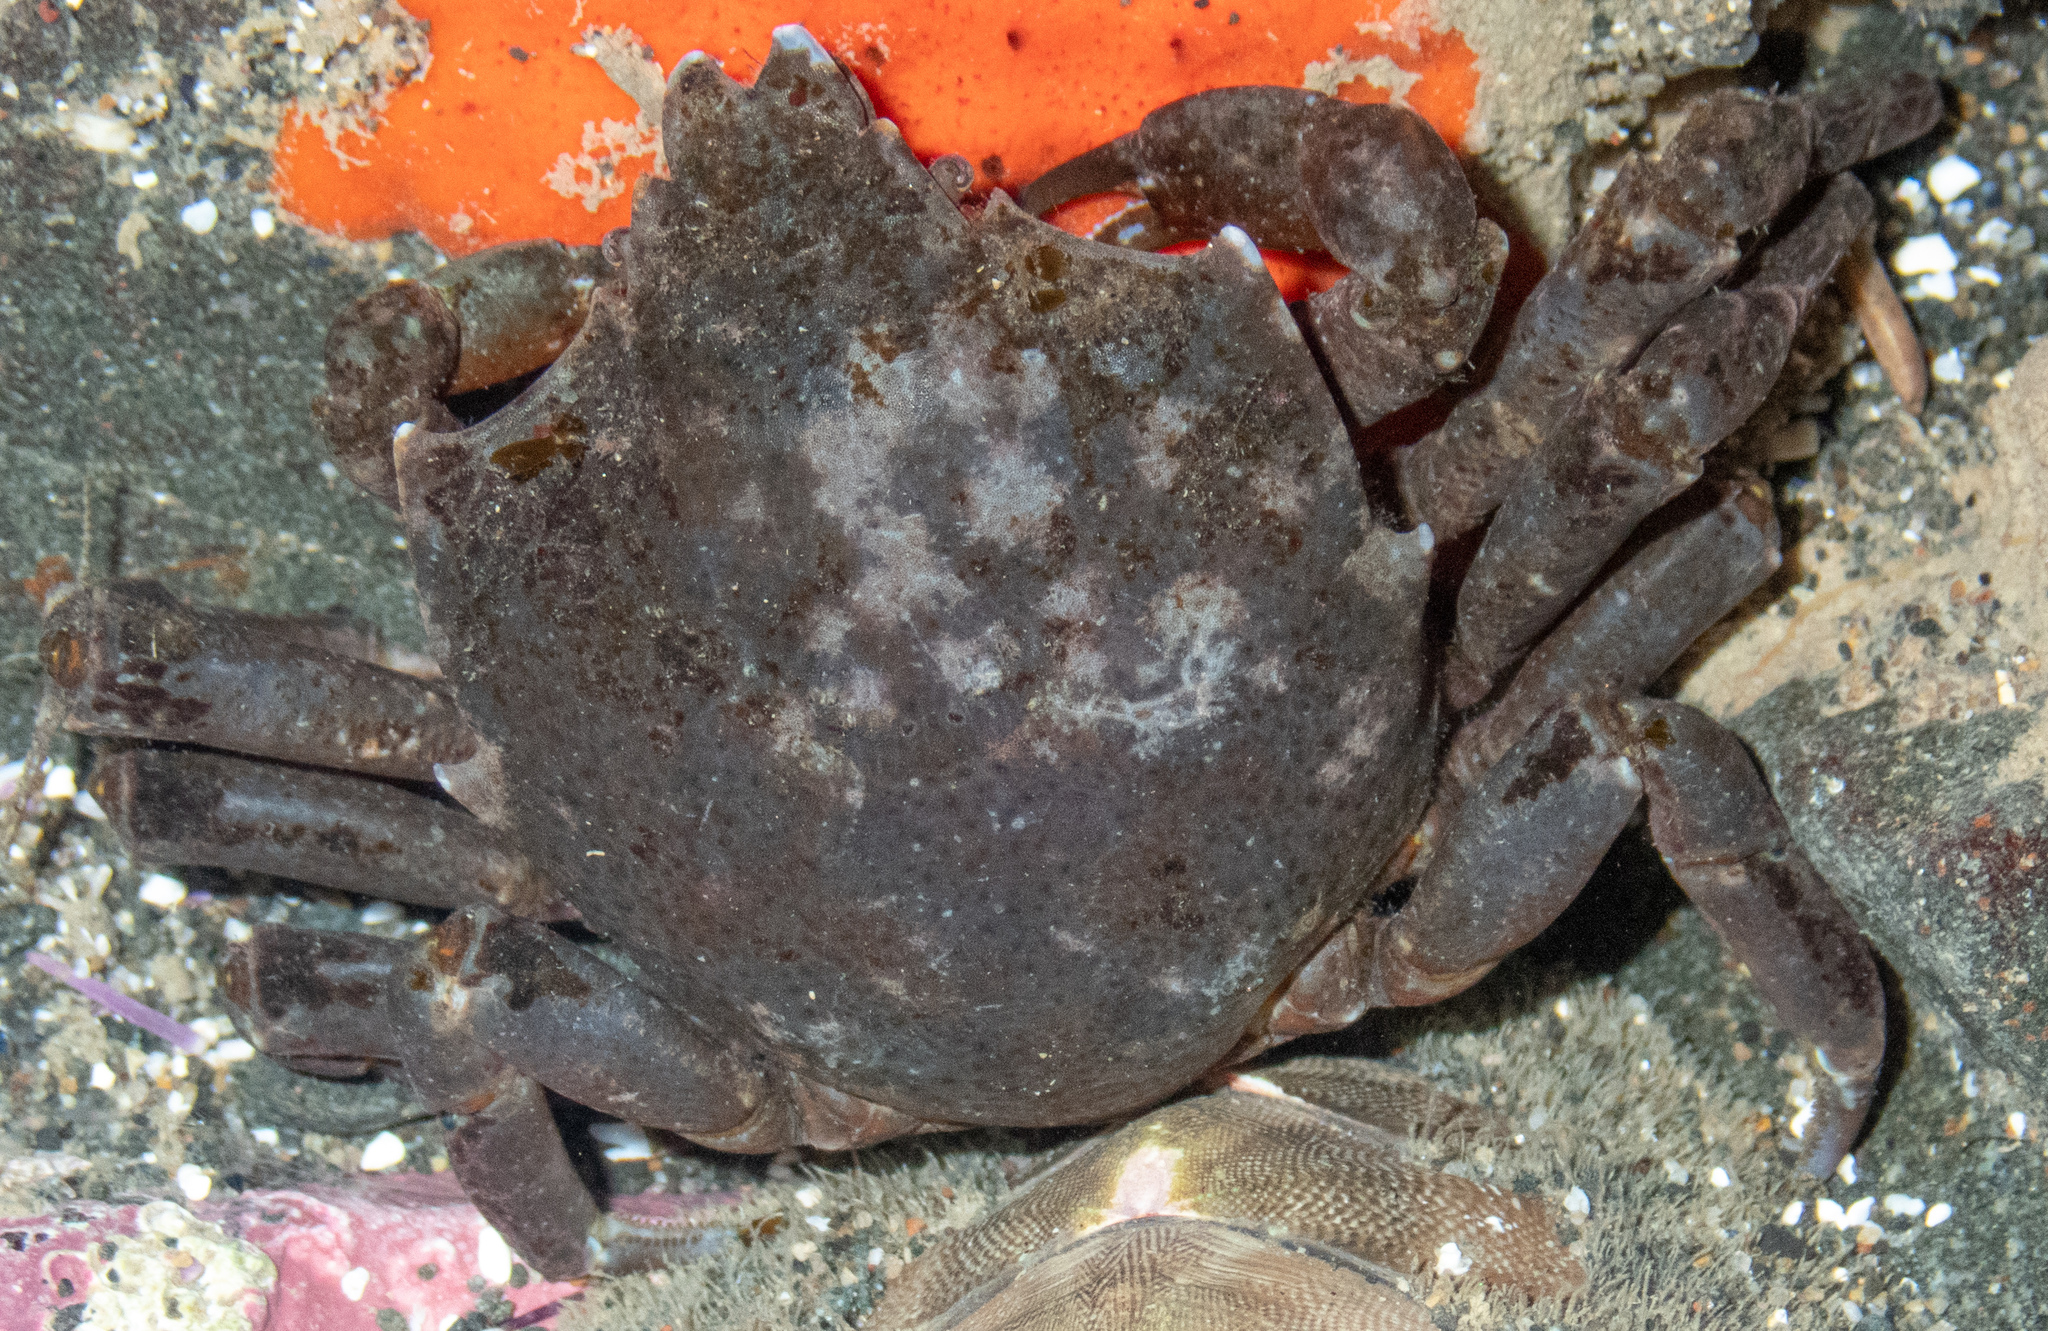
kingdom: Animalia
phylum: Arthropoda
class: Malacostraca
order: Decapoda
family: Epialtidae
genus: Pugettia
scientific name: Pugettia producta
